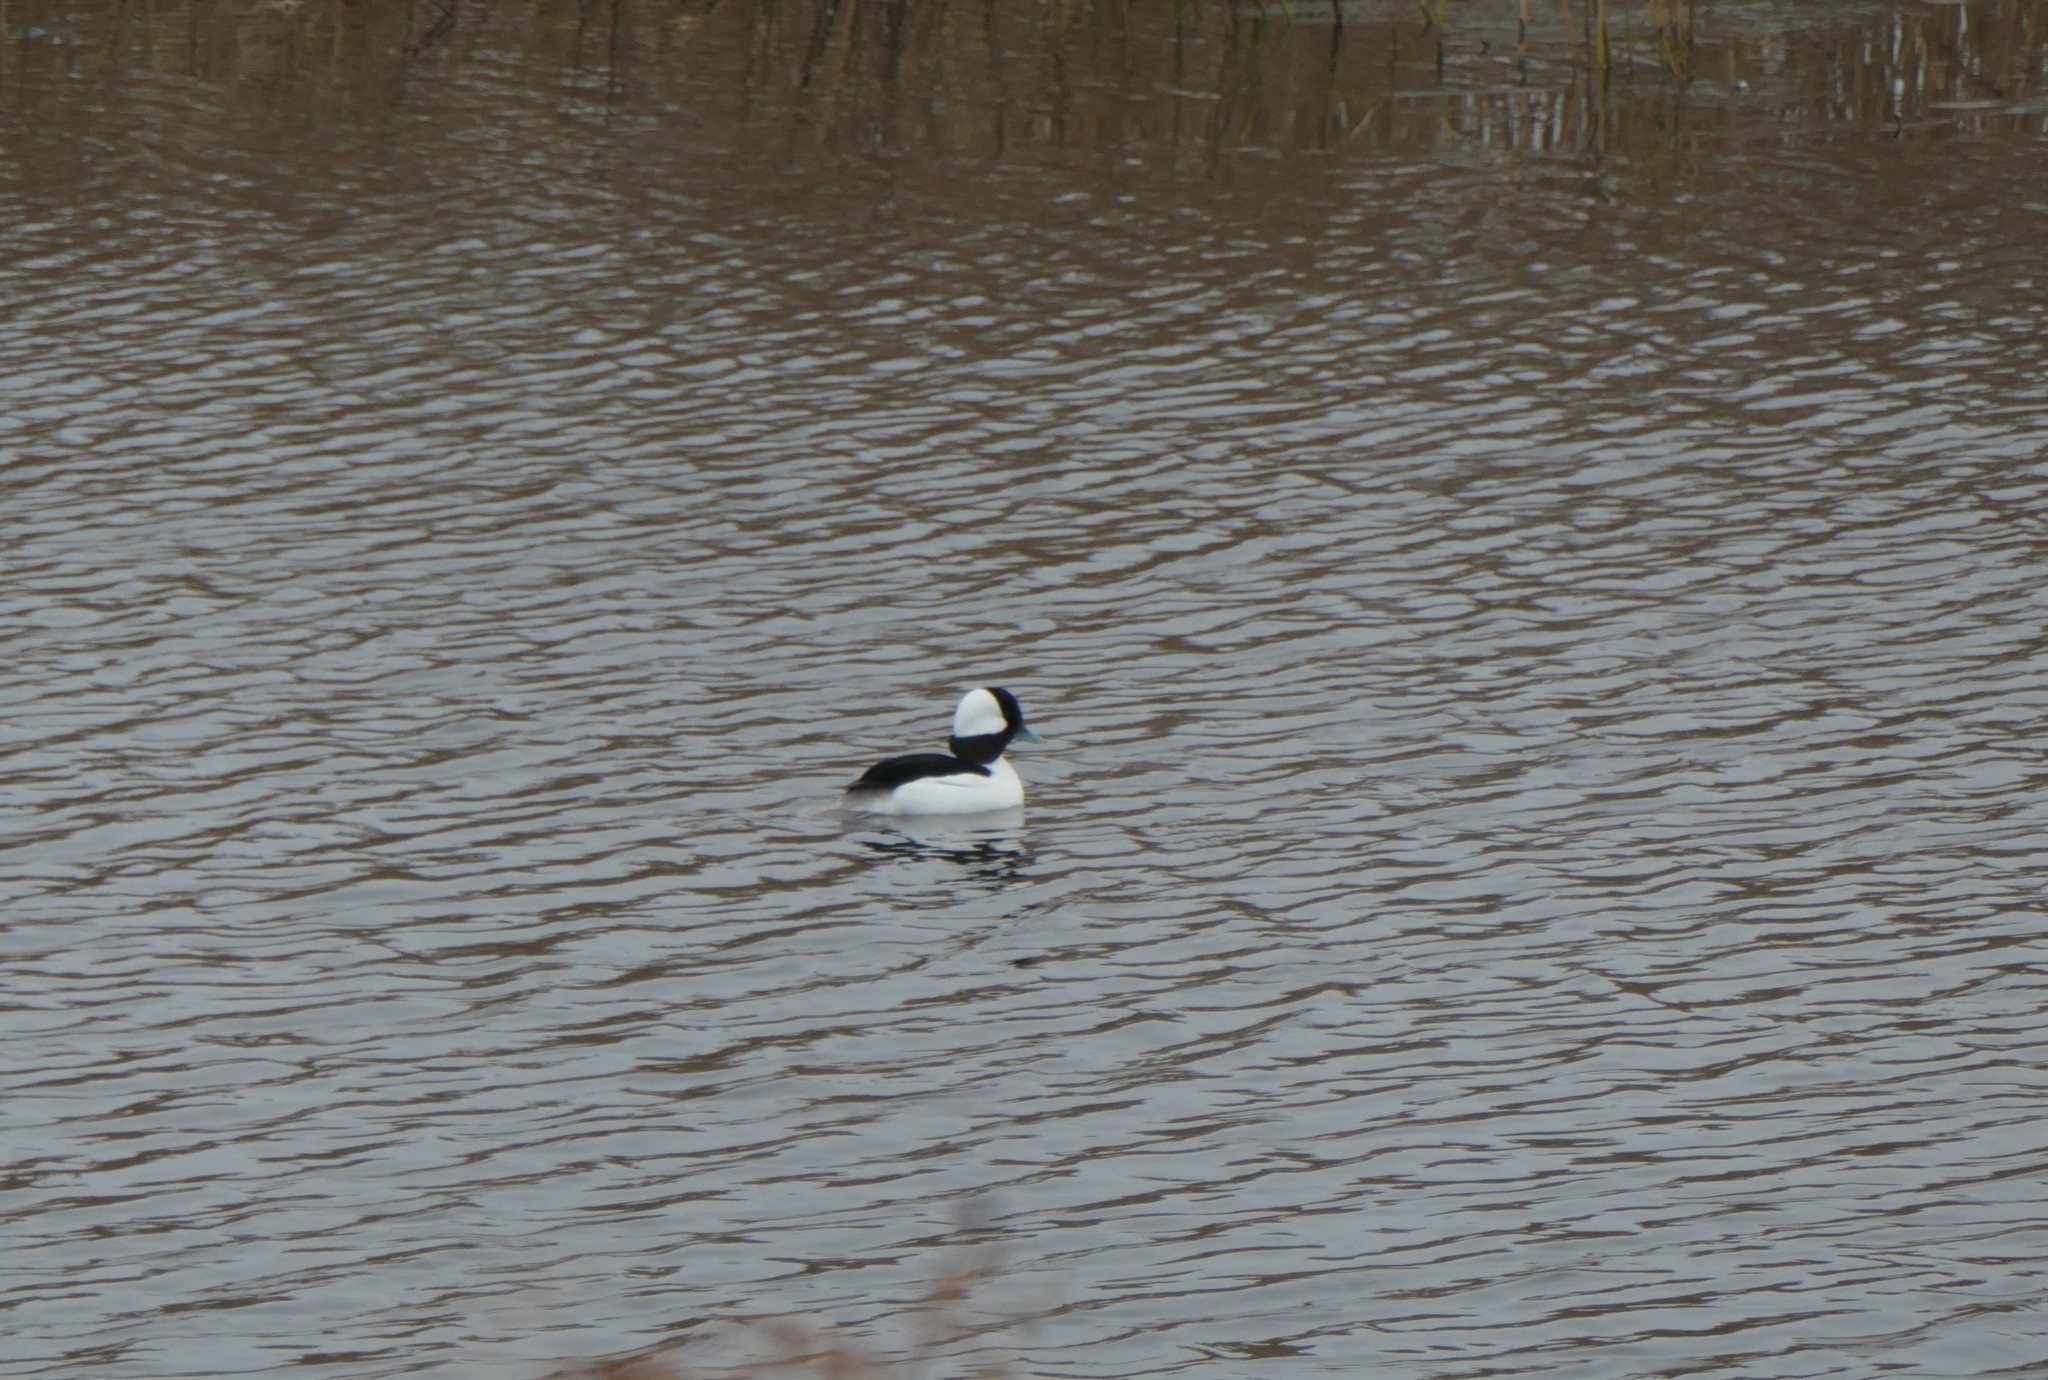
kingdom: Animalia
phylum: Chordata
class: Aves
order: Anseriformes
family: Anatidae
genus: Bucephala
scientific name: Bucephala albeola
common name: Bufflehead
